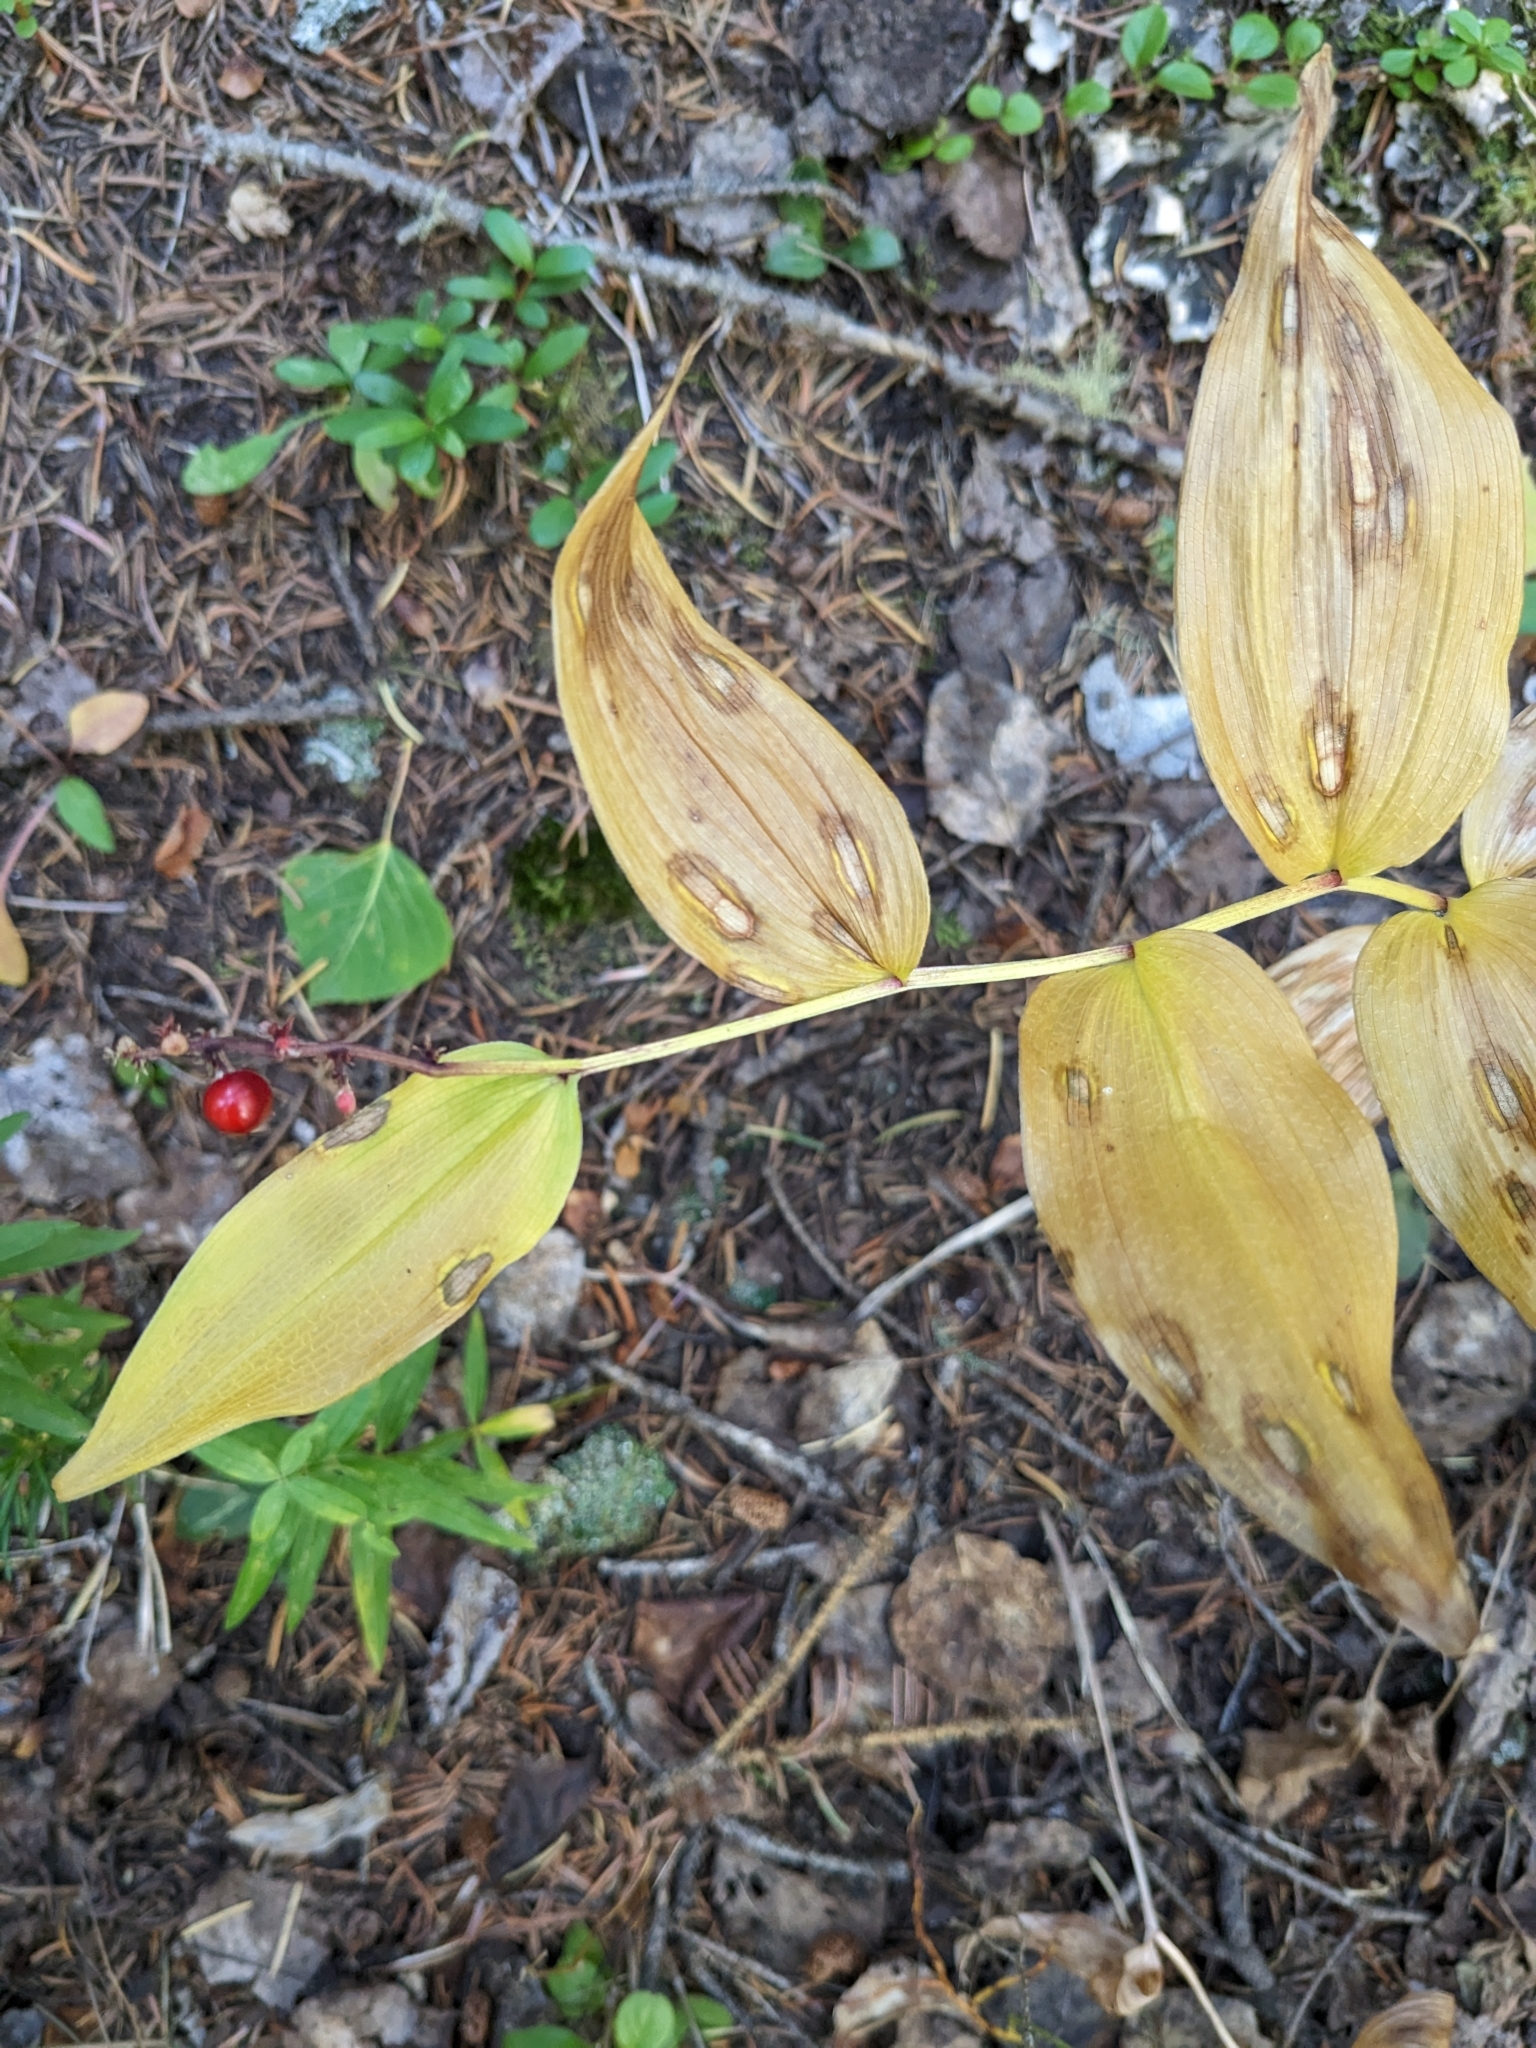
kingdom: Plantae
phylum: Tracheophyta
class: Liliopsida
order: Asparagales
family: Asparagaceae
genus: Maianthemum
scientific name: Maianthemum racemosum
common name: False spikenard
